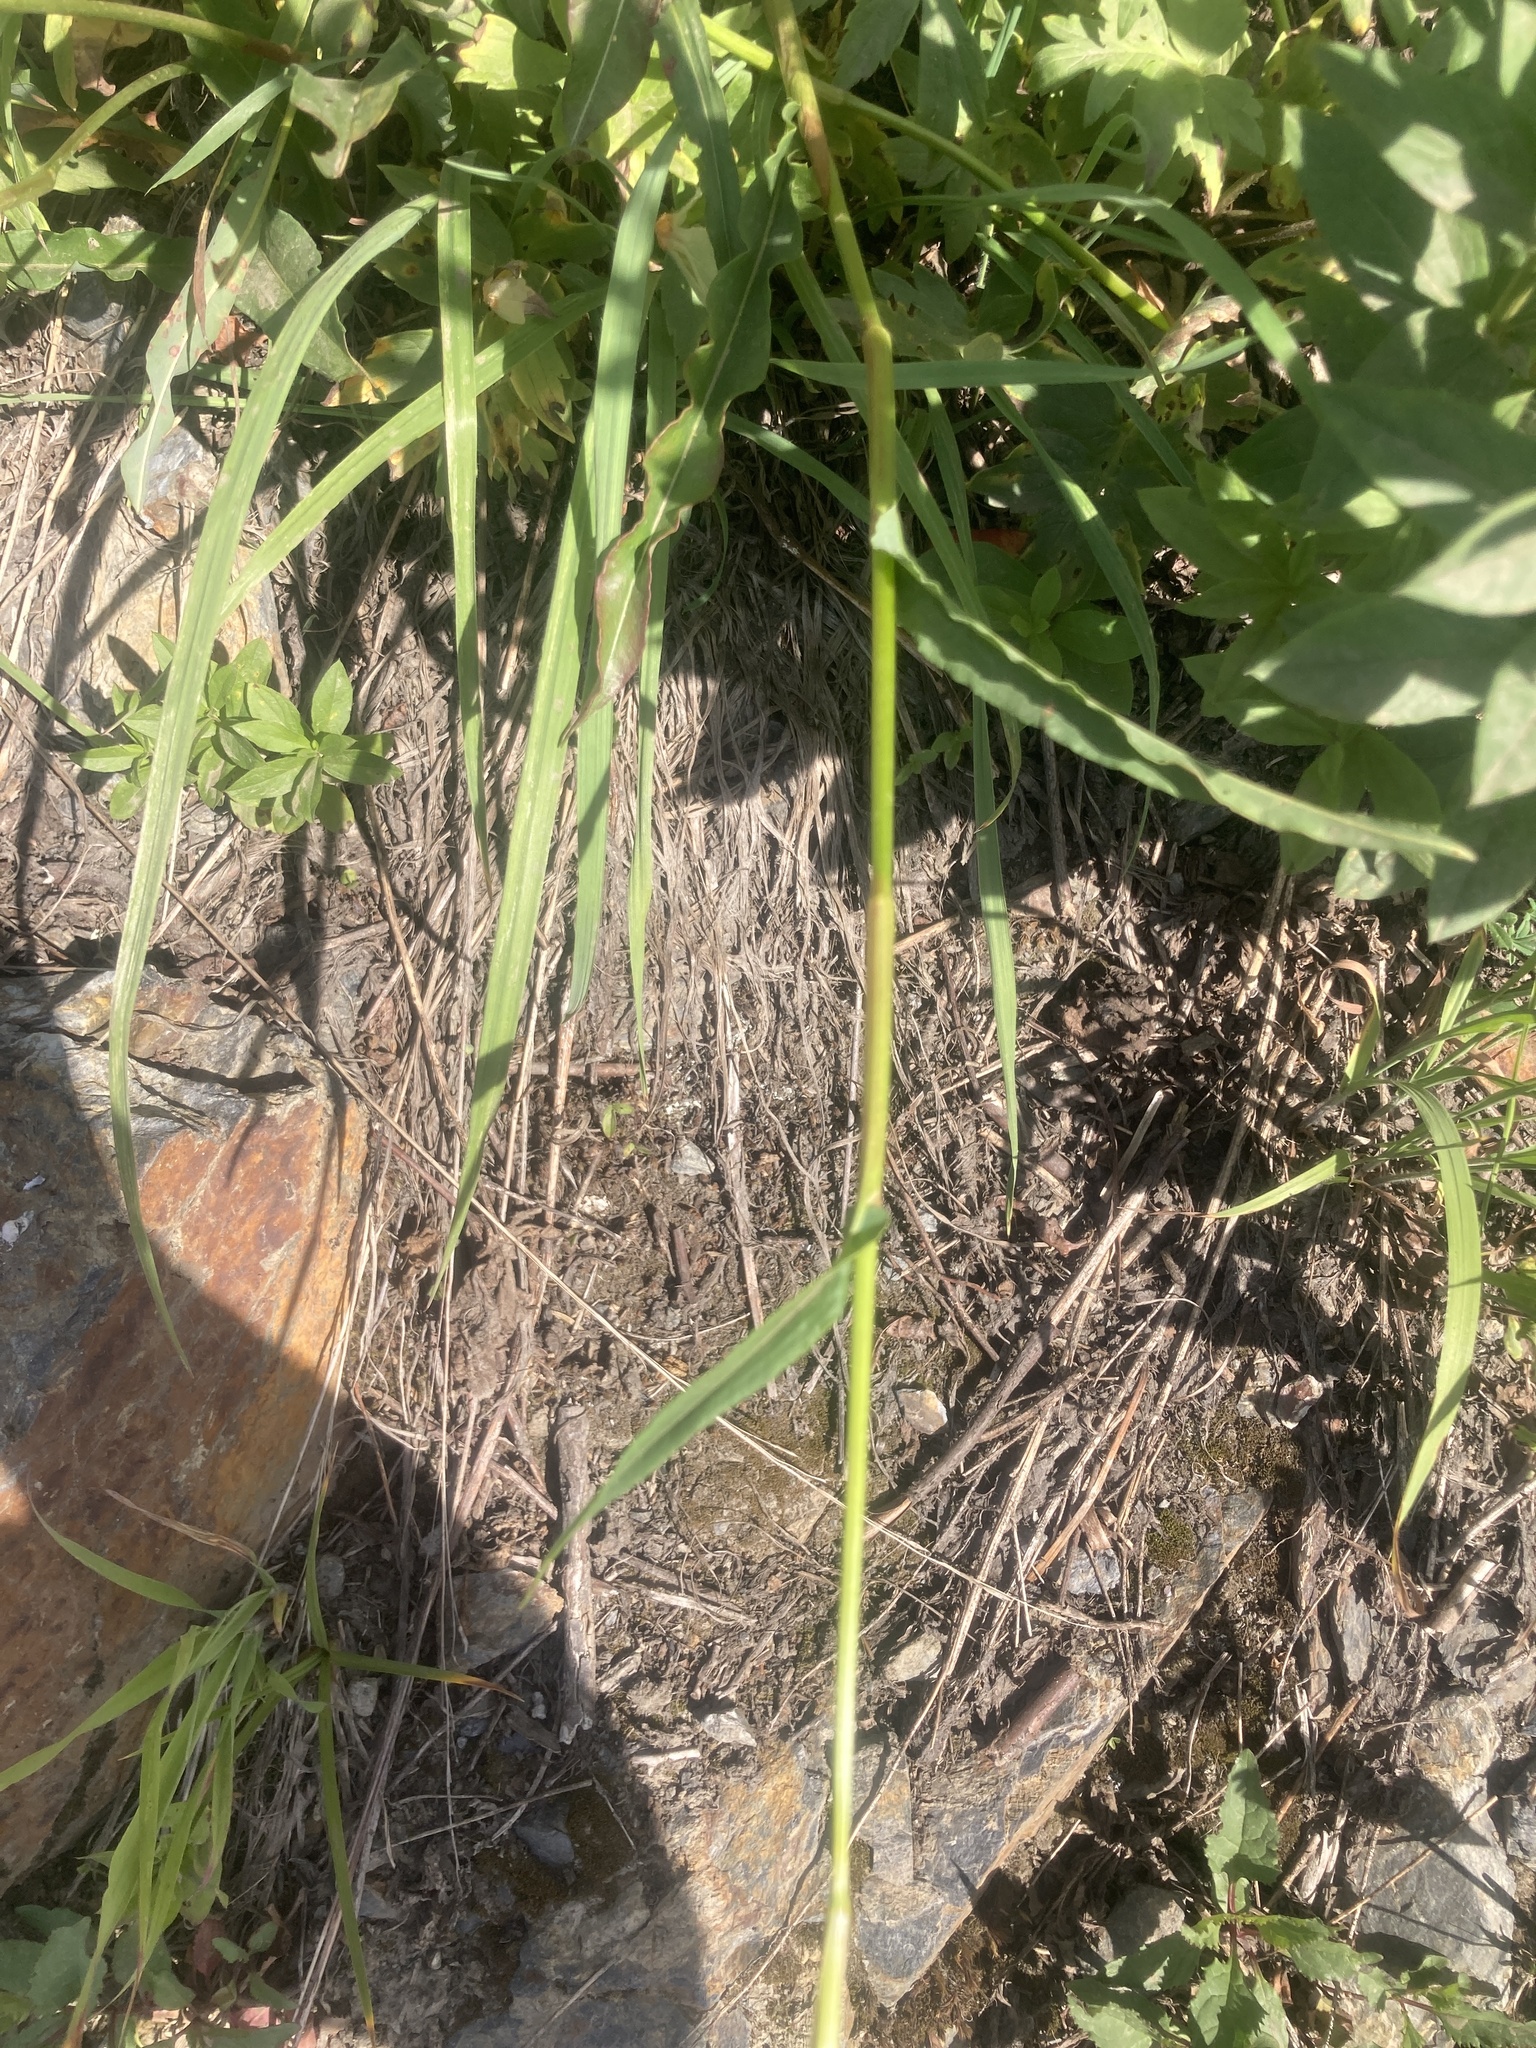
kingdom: Plantae
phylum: Tracheophyta
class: Magnoliopsida
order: Caryophyllales
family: Polygonaceae
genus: Bistorta
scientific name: Bistorta bistortoides
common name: American bistort
